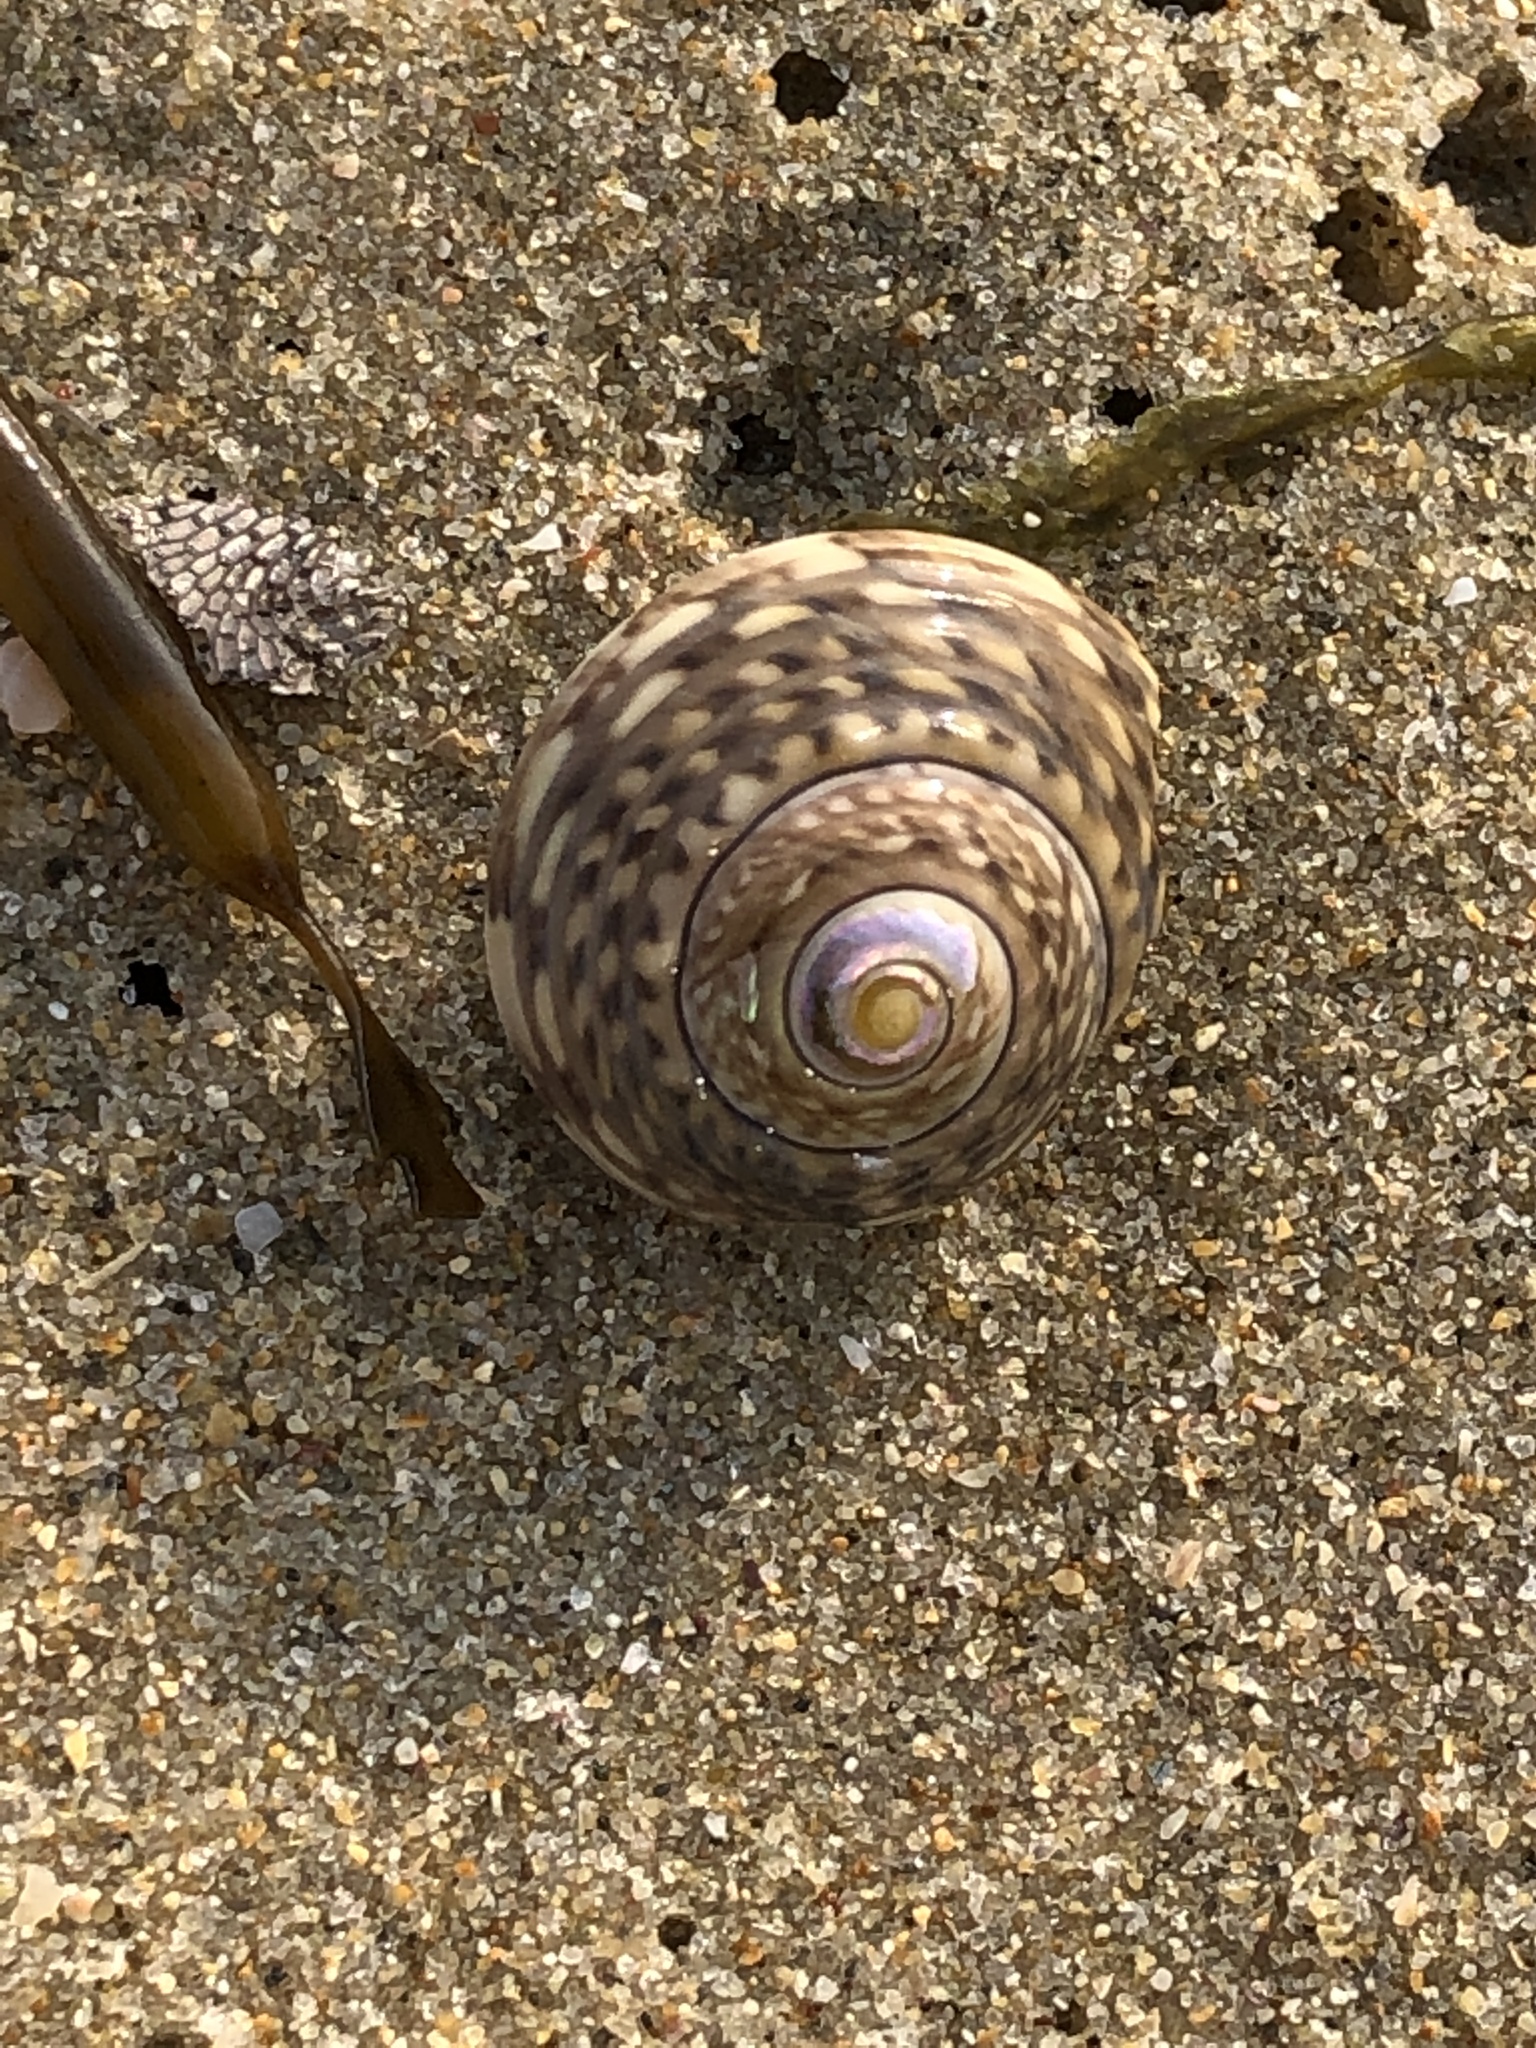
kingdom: Animalia
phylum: Mollusca
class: Gastropoda
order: Trochida
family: Trochidae
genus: Umbonium
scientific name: Umbonium costatum
